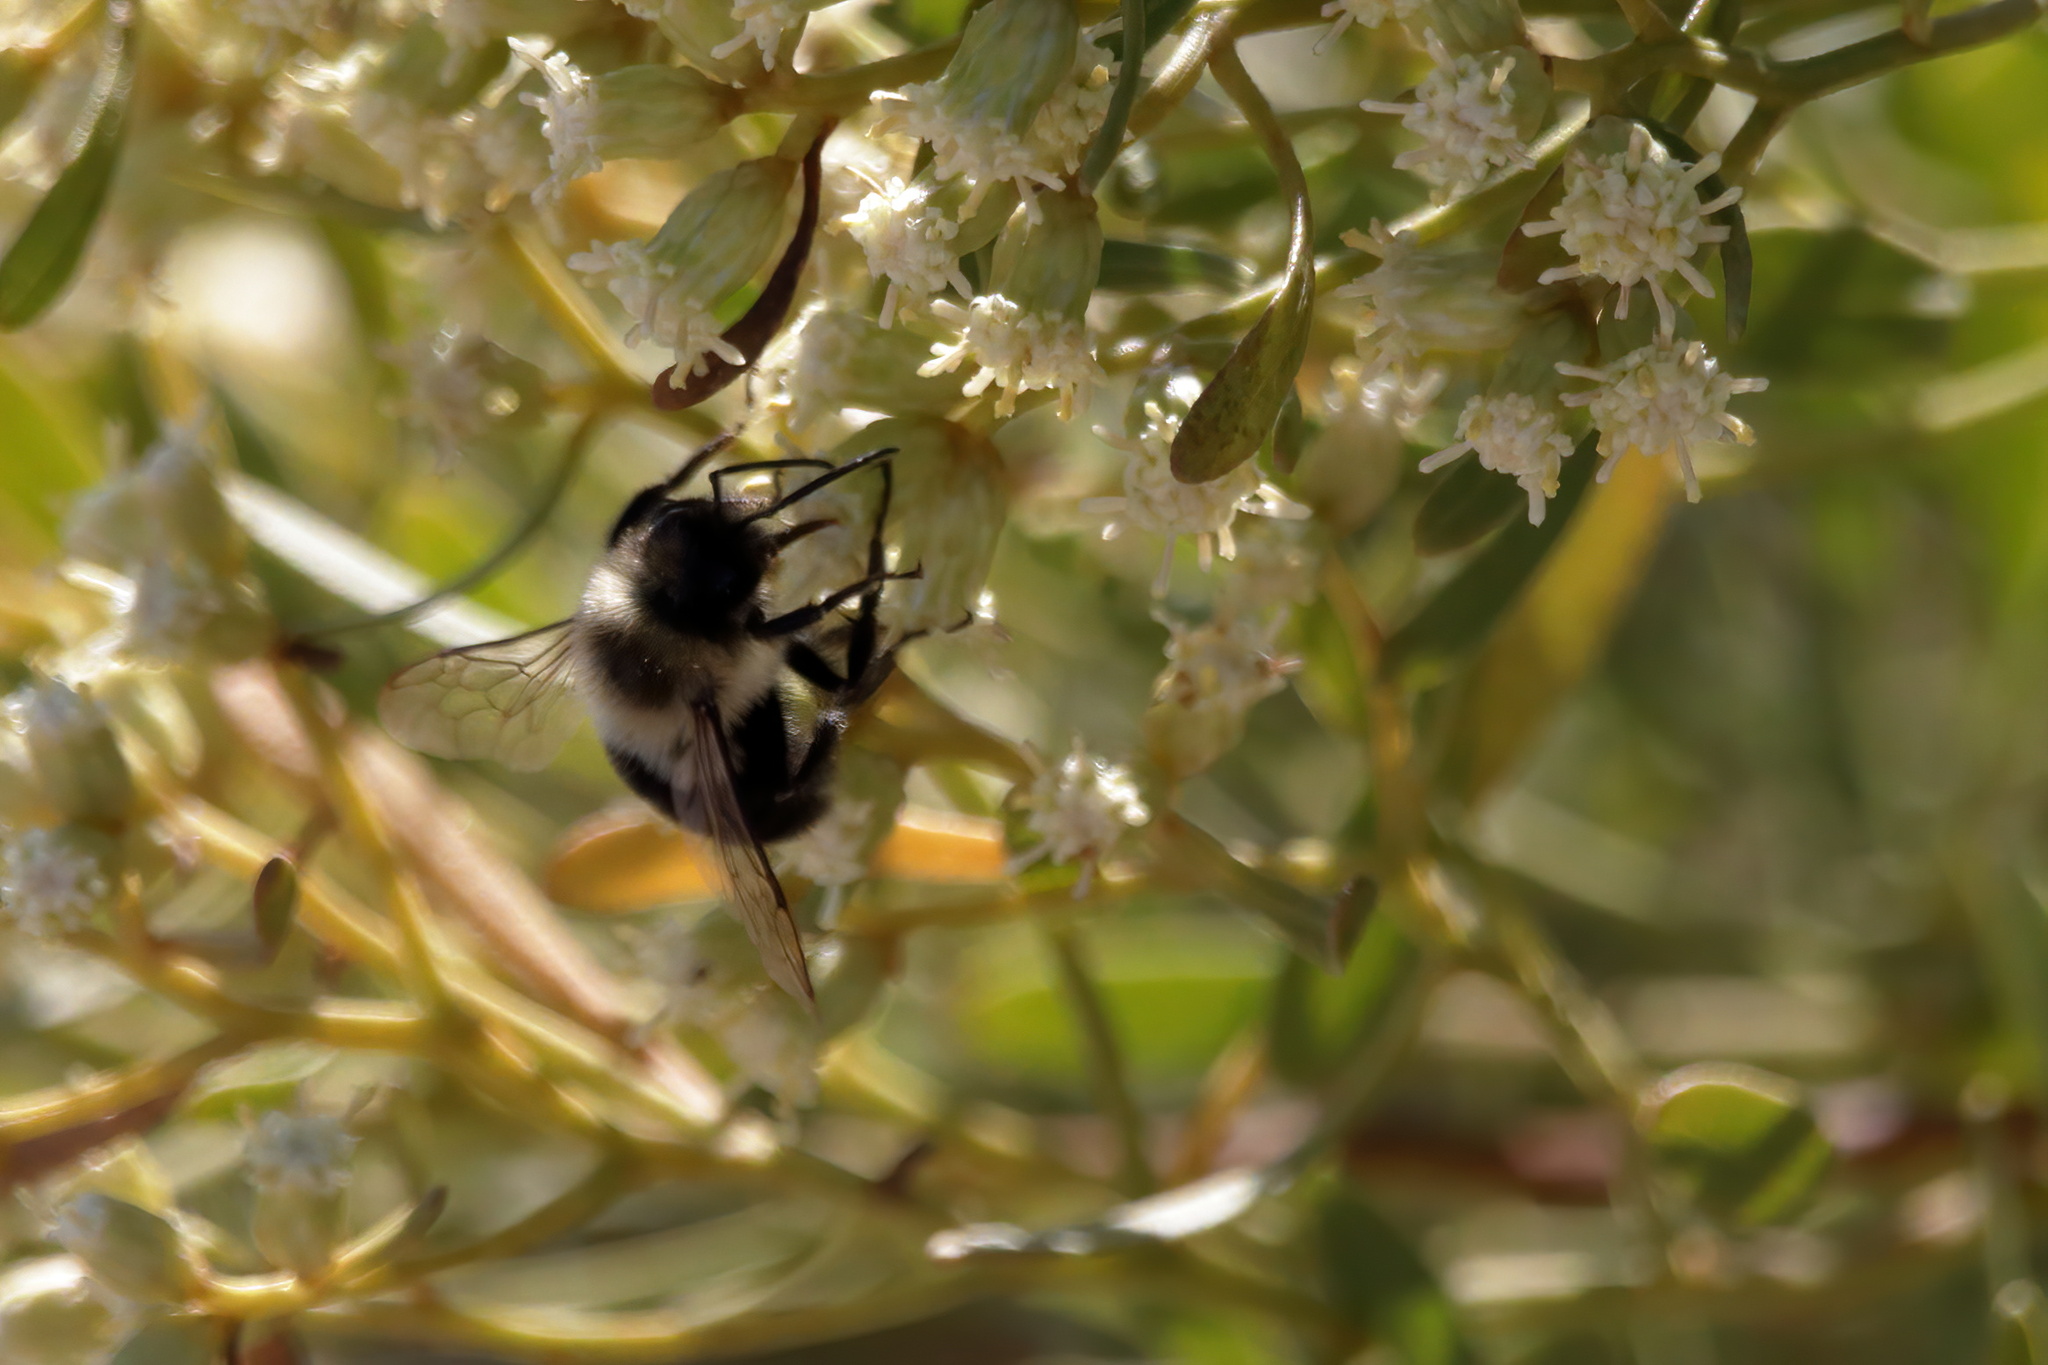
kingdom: Animalia
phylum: Arthropoda
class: Insecta
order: Hymenoptera
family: Apidae
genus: Bombus
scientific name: Bombus impatiens
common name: Common eastern bumble bee
